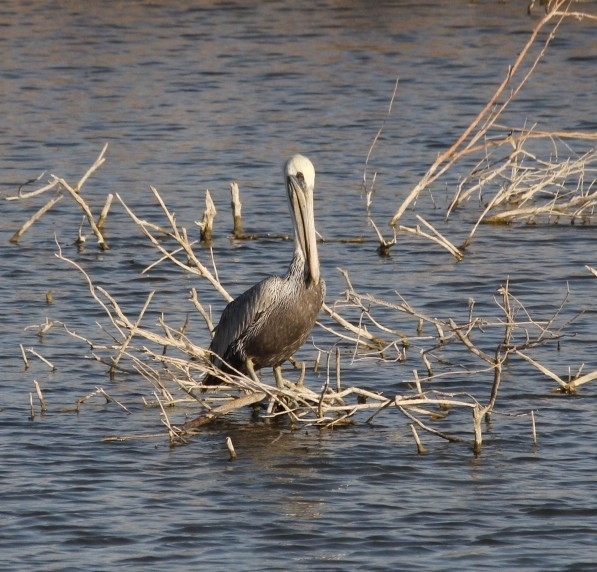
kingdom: Animalia
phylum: Chordata
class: Aves
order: Pelecaniformes
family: Pelecanidae
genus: Pelecanus
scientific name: Pelecanus occidentalis
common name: Brown pelican
